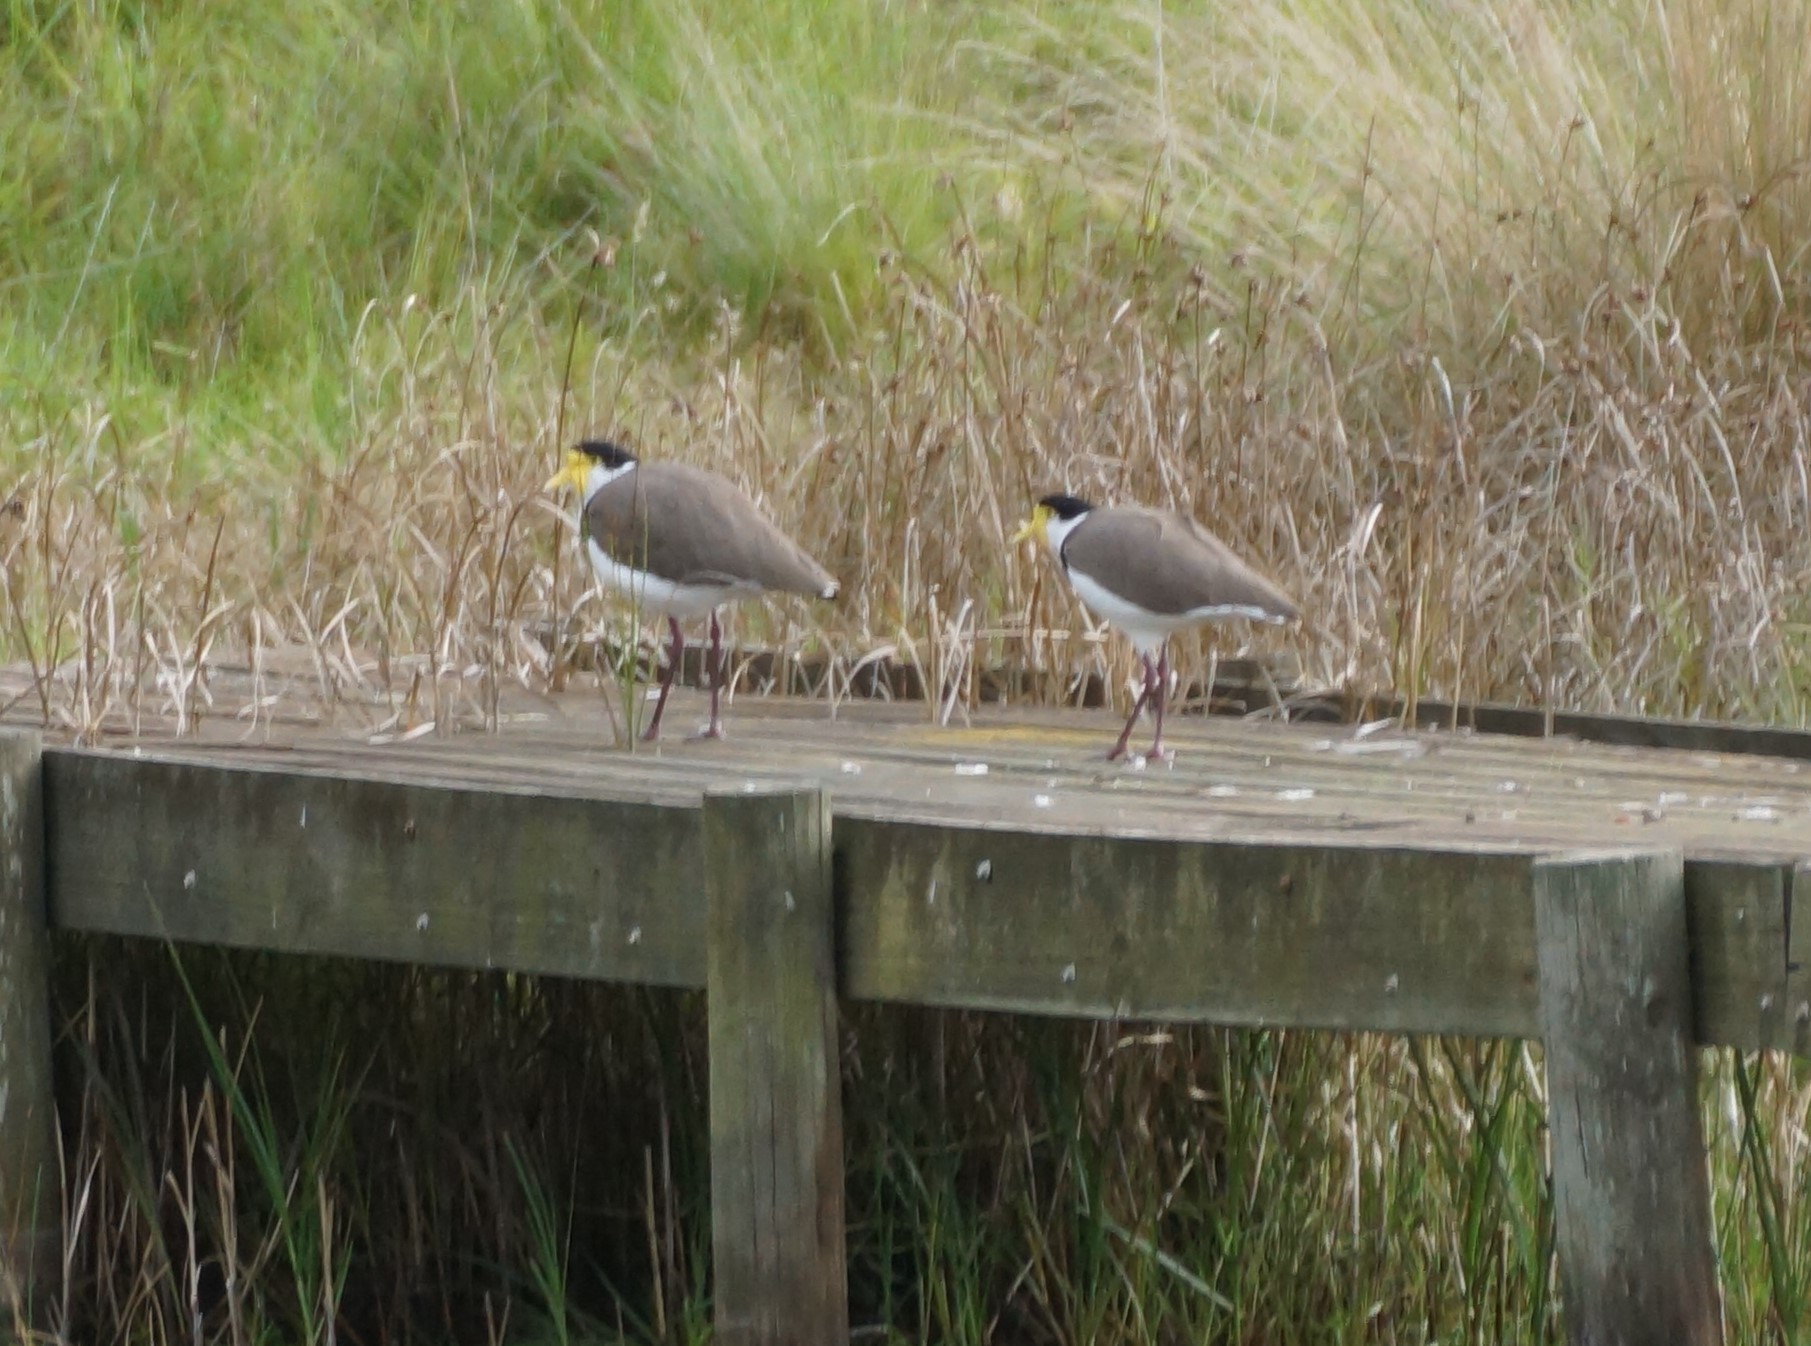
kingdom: Animalia
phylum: Chordata
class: Aves
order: Charadriiformes
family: Charadriidae
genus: Vanellus
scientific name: Vanellus miles
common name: Masked lapwing
